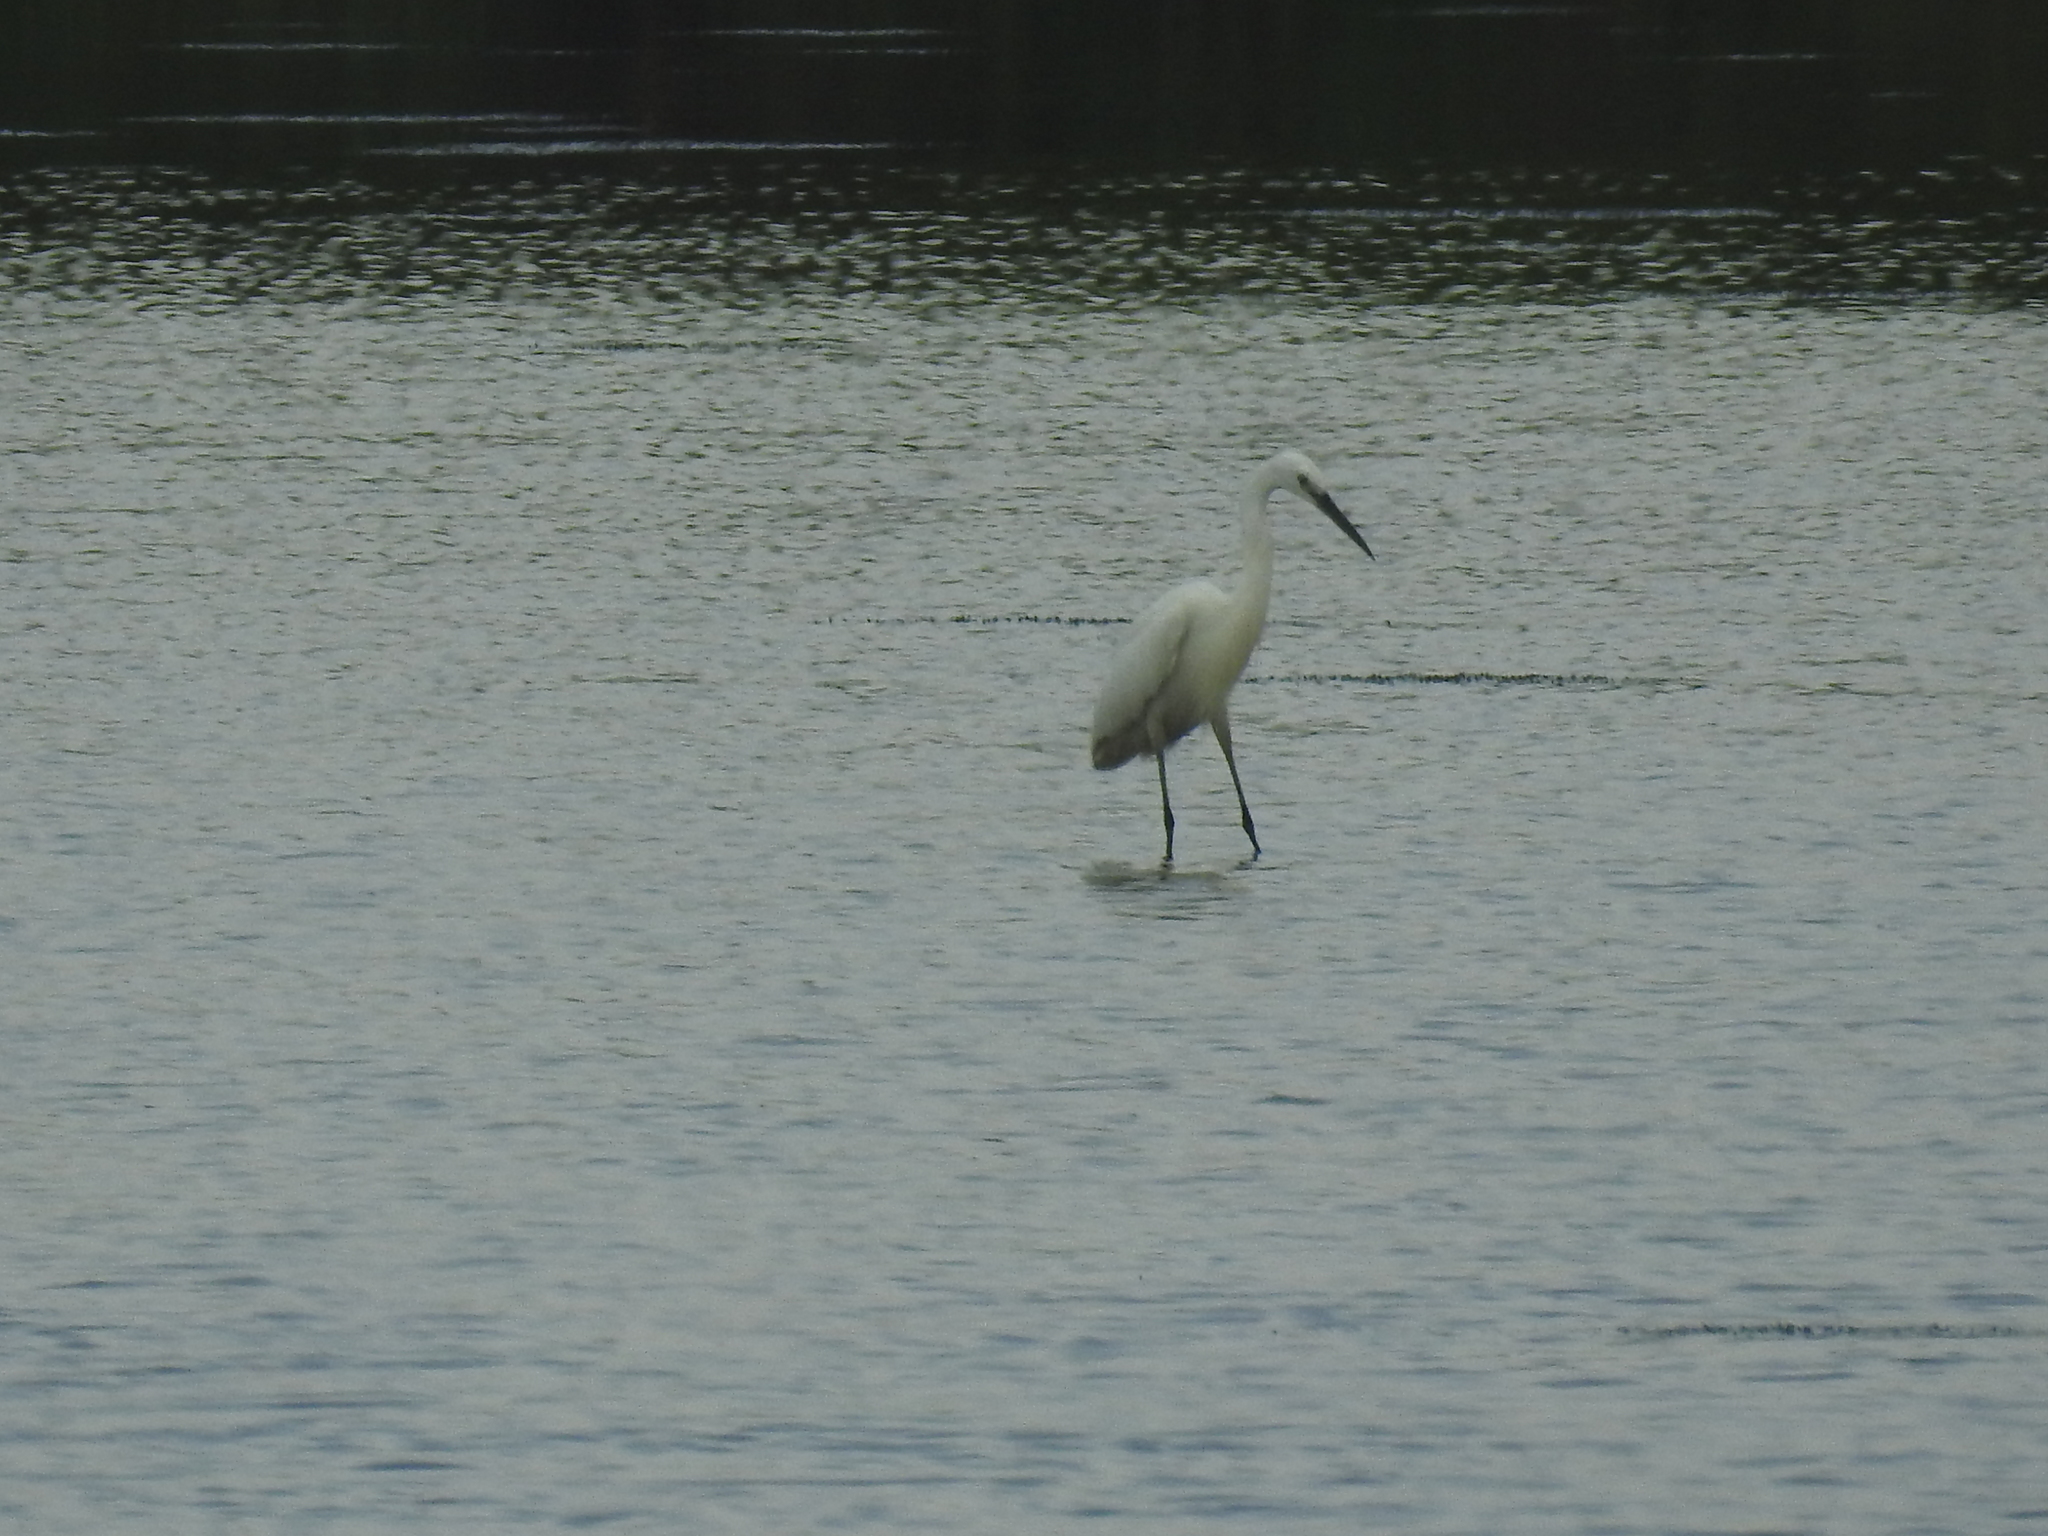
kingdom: Animalia
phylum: Chordata
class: Aves
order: Pelecaniformes
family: Ardeidae
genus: Egretta
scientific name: Egretta garzetta
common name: Little egret
